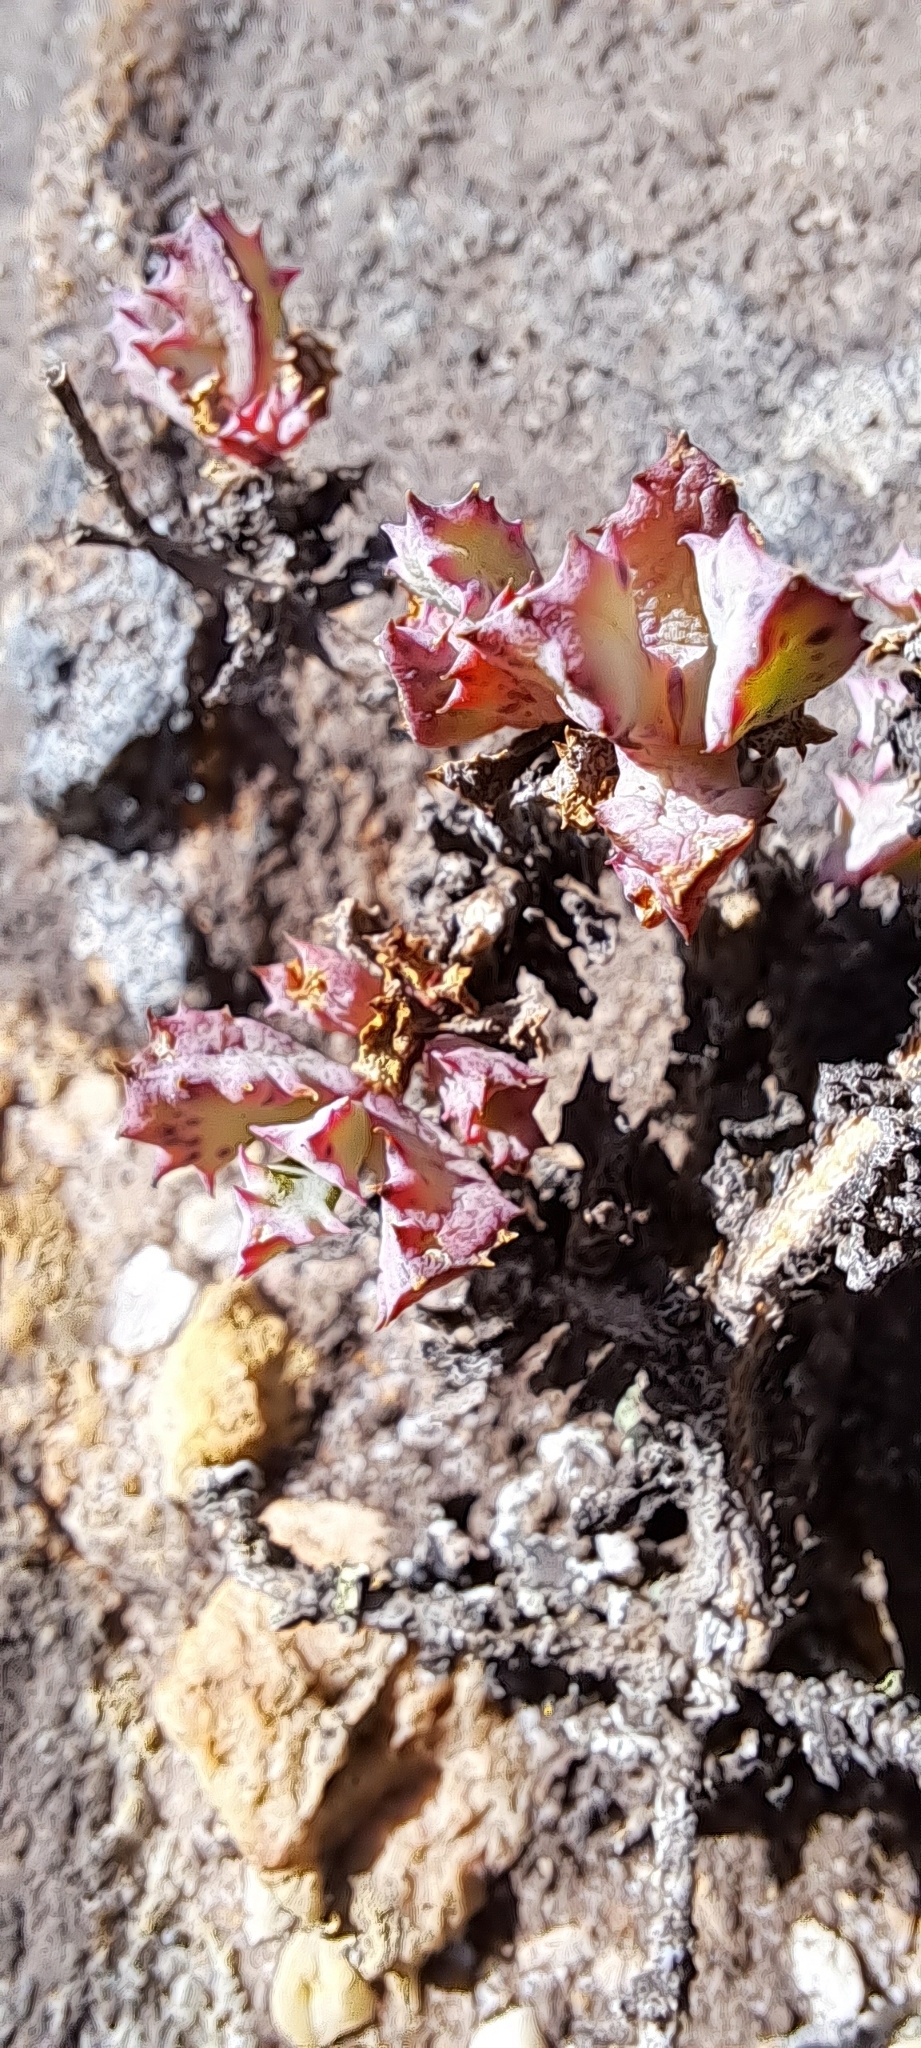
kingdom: Plantae
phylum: Tracheophyta
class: Magnoliopsida
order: Caryophyllales
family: Aizoaceae
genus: Oscularia
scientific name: Oscularia deltoides
